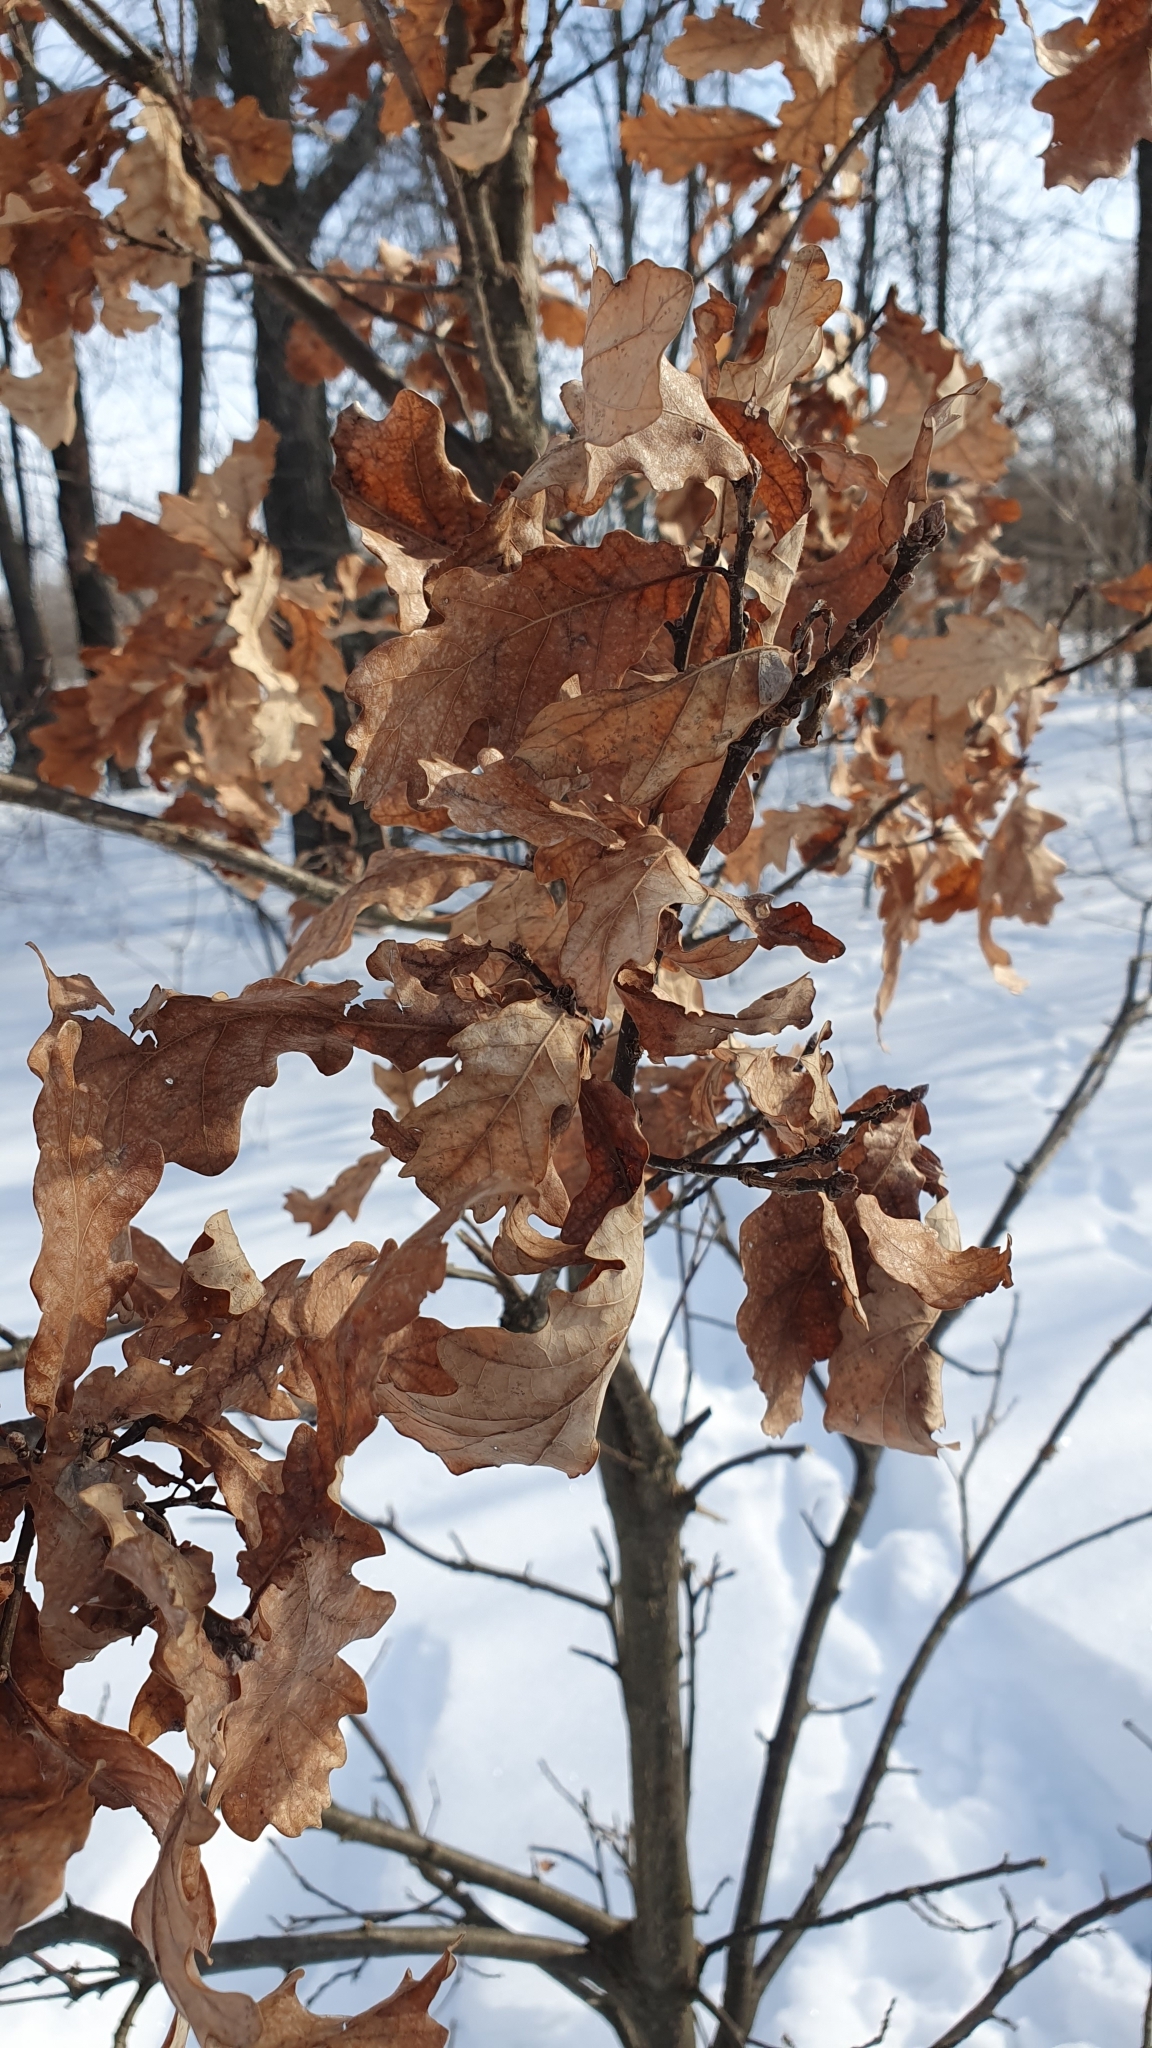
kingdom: Plantae
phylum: Tracheophyta
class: Magnoliopsida
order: Fagales
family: Fagaceae
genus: Quercus
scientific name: Quercus robur
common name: Pedunculate oak
